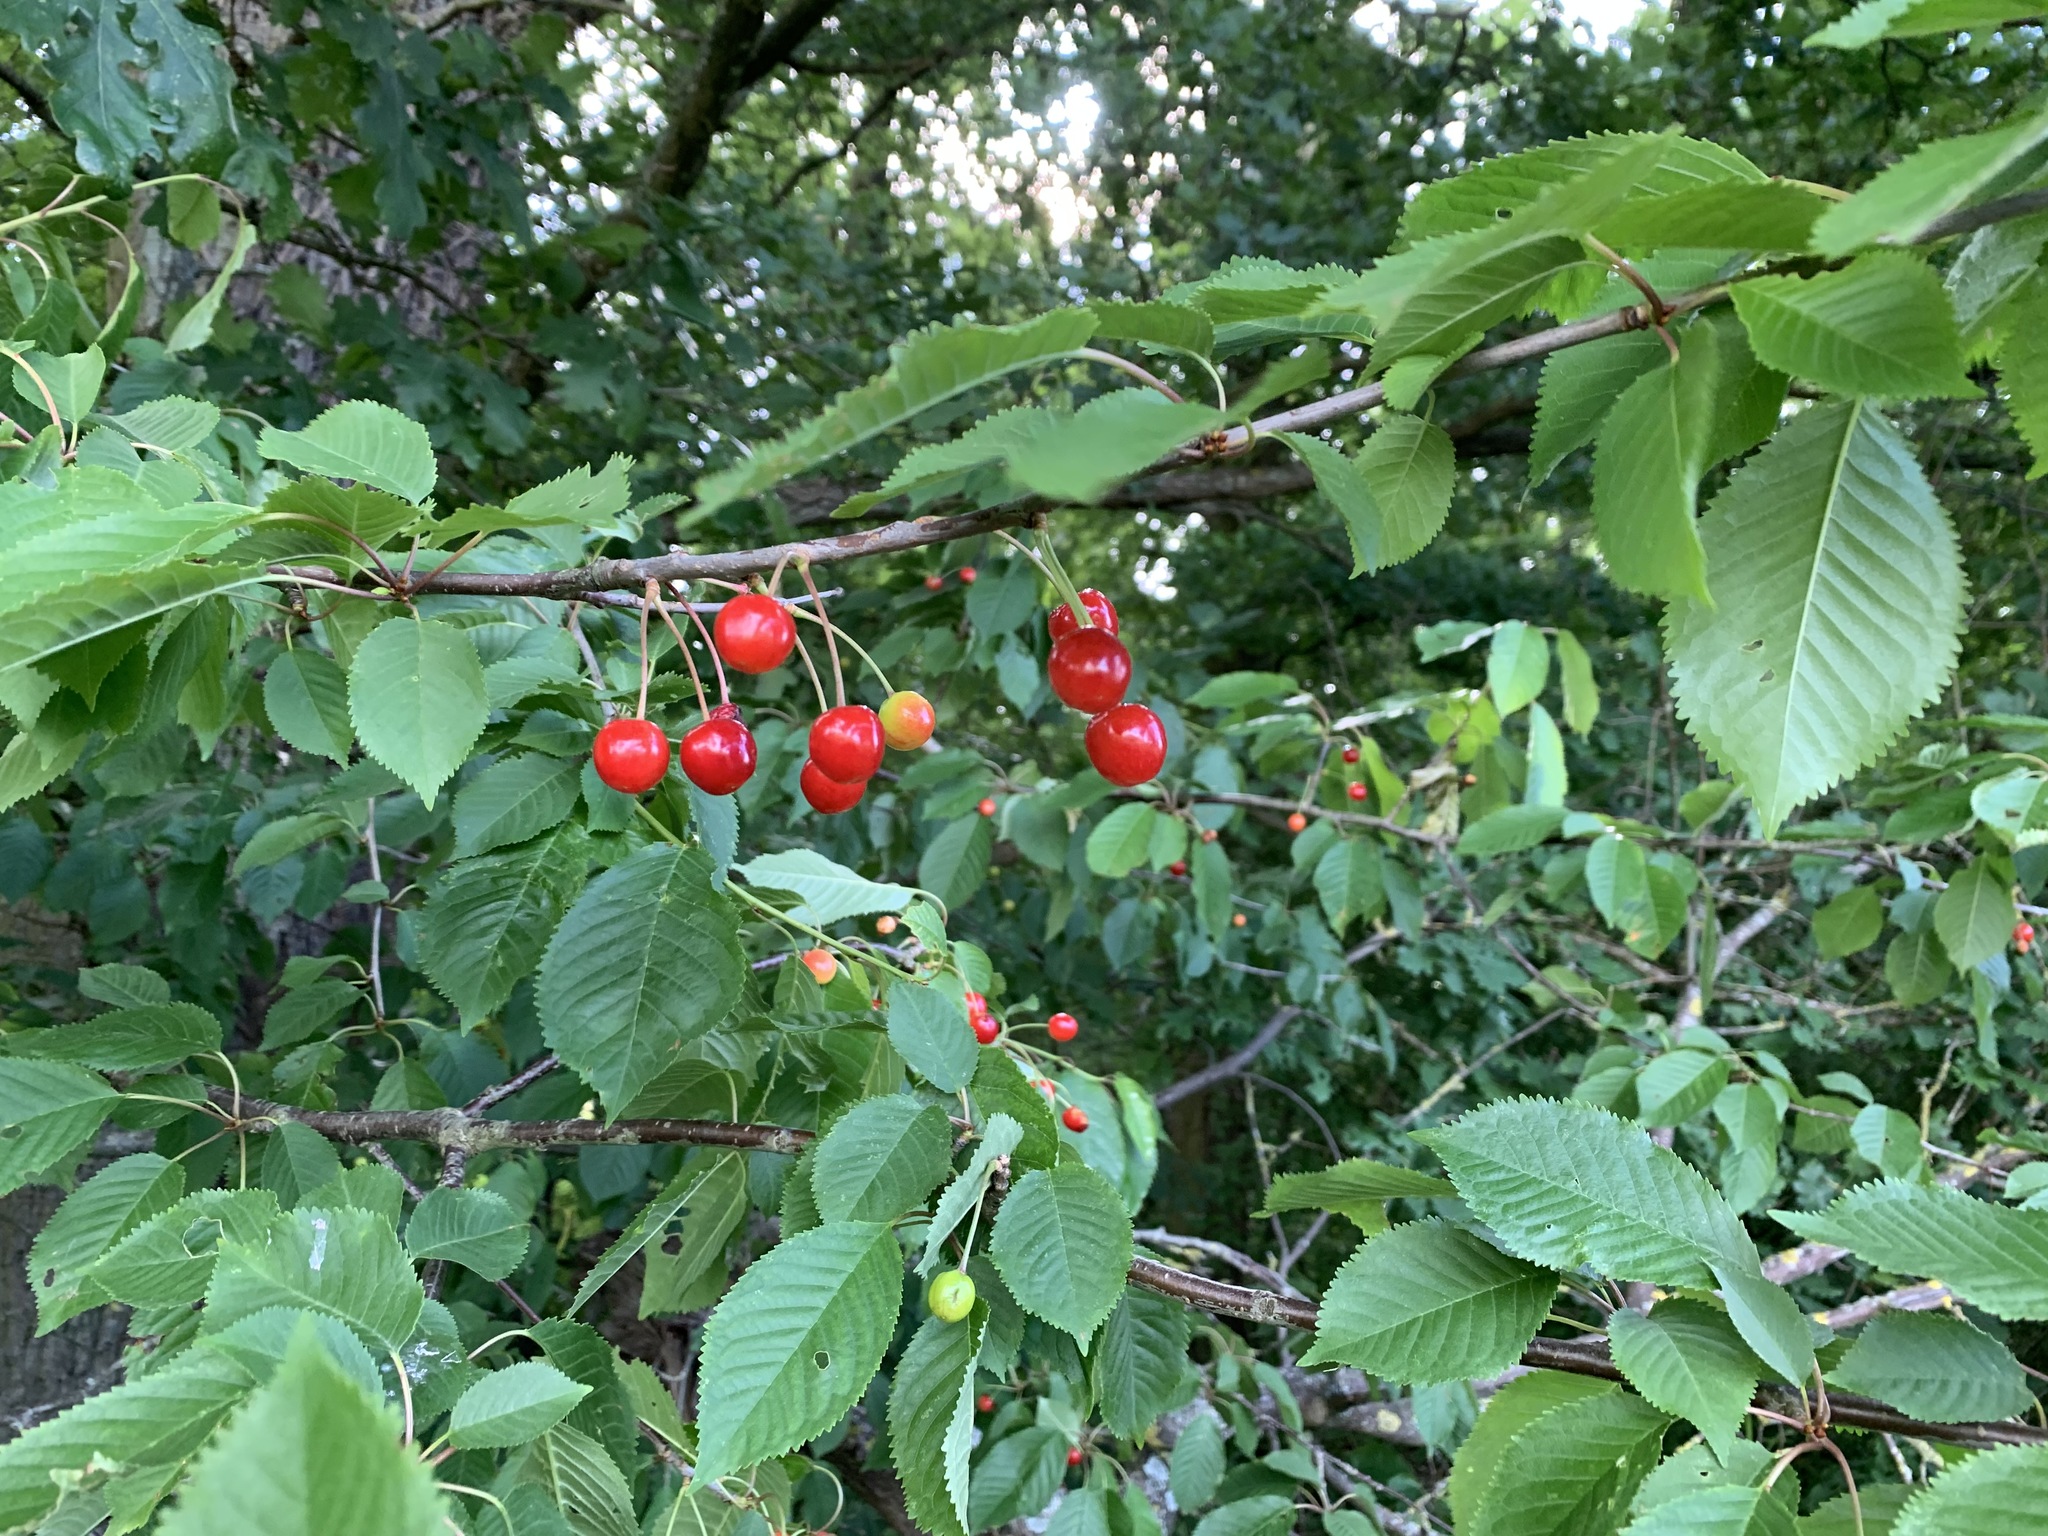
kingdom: Plantae
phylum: Tracheophyta
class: Magnoliopsida
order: Rosales
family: Rosaceae
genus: Prunus
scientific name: Prunus avium
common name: Sweet cherry
